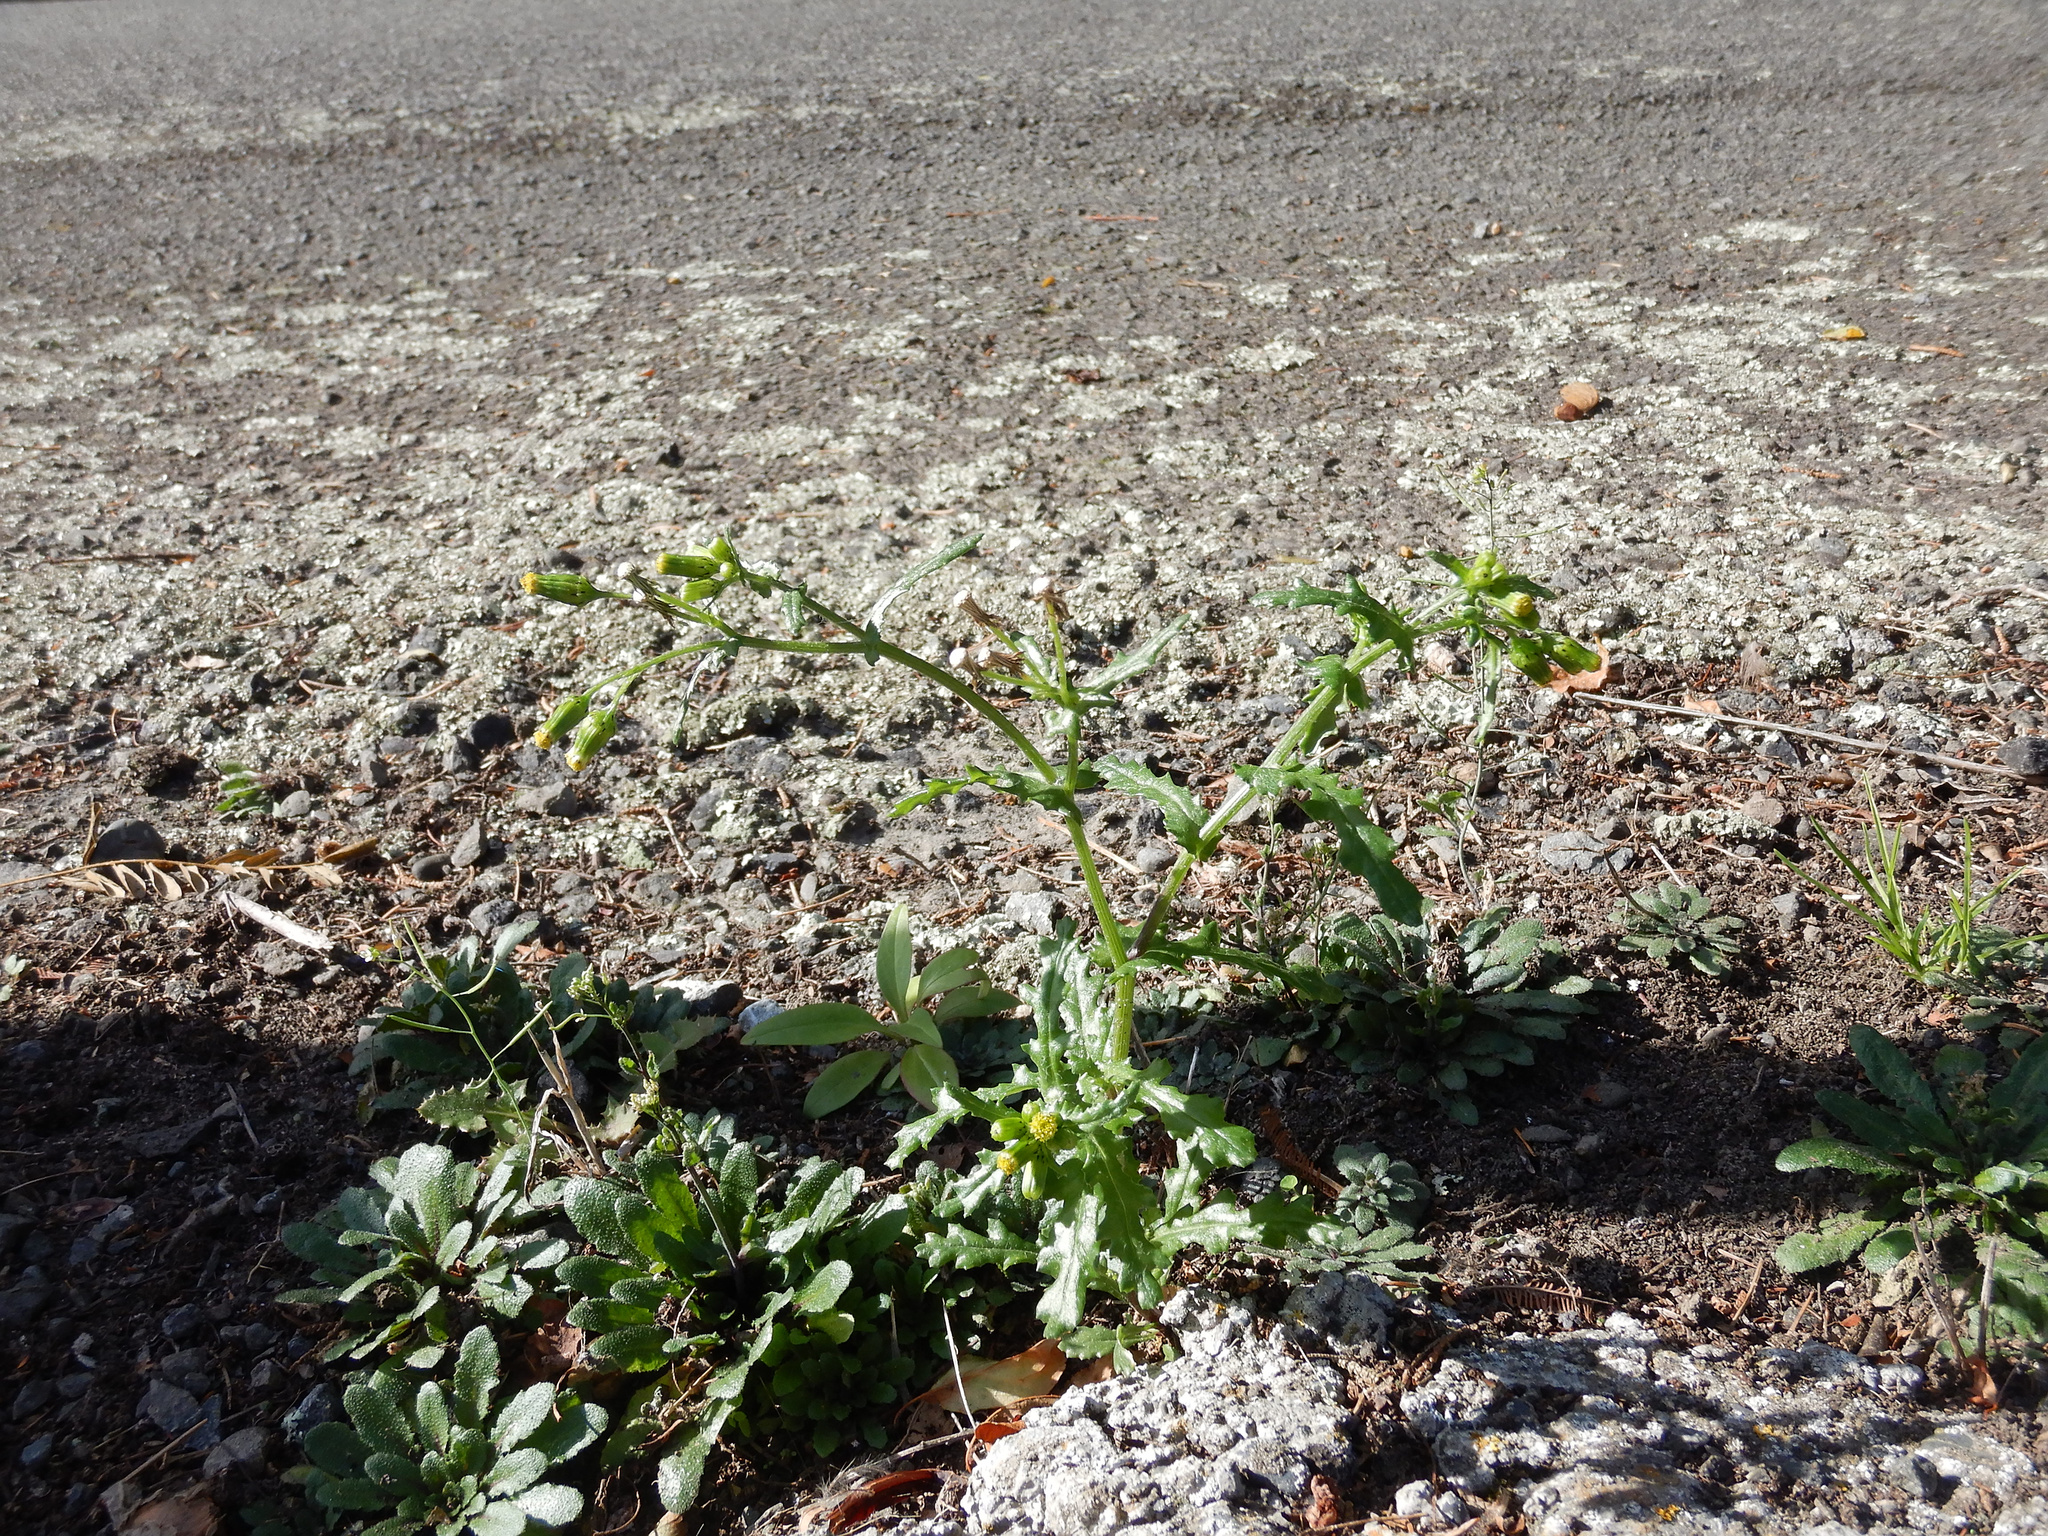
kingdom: Plantae
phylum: Tracheophyta
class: Magnoliopsida
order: Asterales
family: Asteraceae
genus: Senecio
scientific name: Senecio vulgaris
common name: Old-man-in-the-spring
